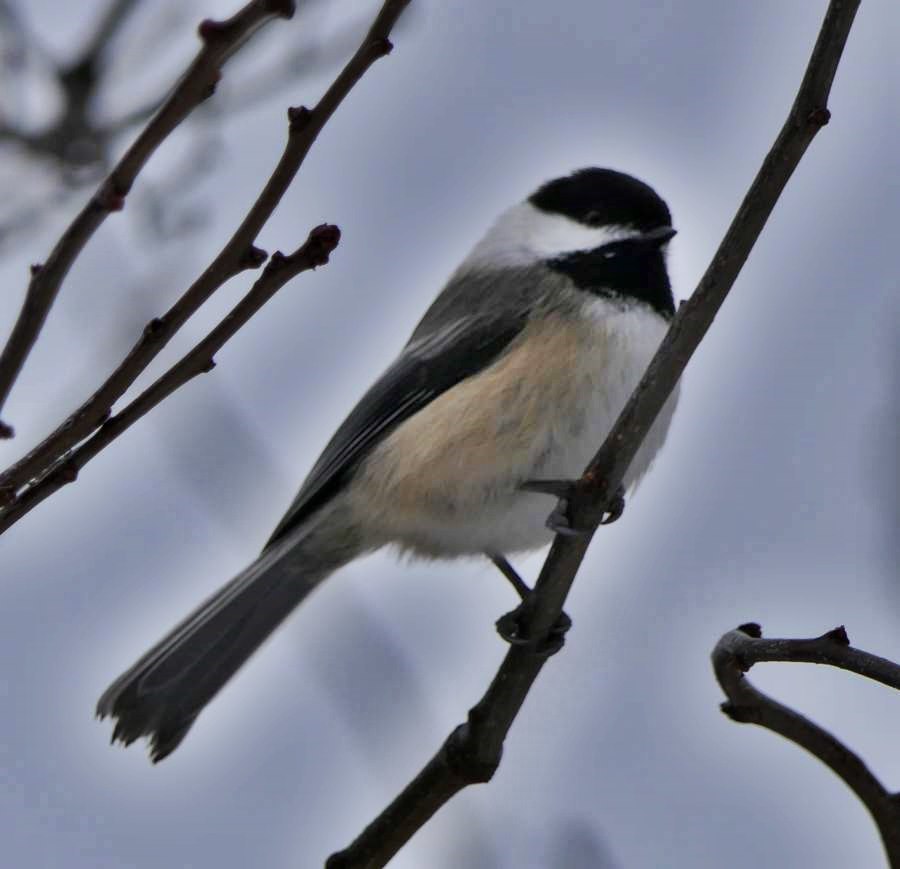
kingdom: Animalia
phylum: Chordata
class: Aves
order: Passeriformes
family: Paridae
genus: Poecile
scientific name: Poecile atricapillus
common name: Black-capped chickadee
